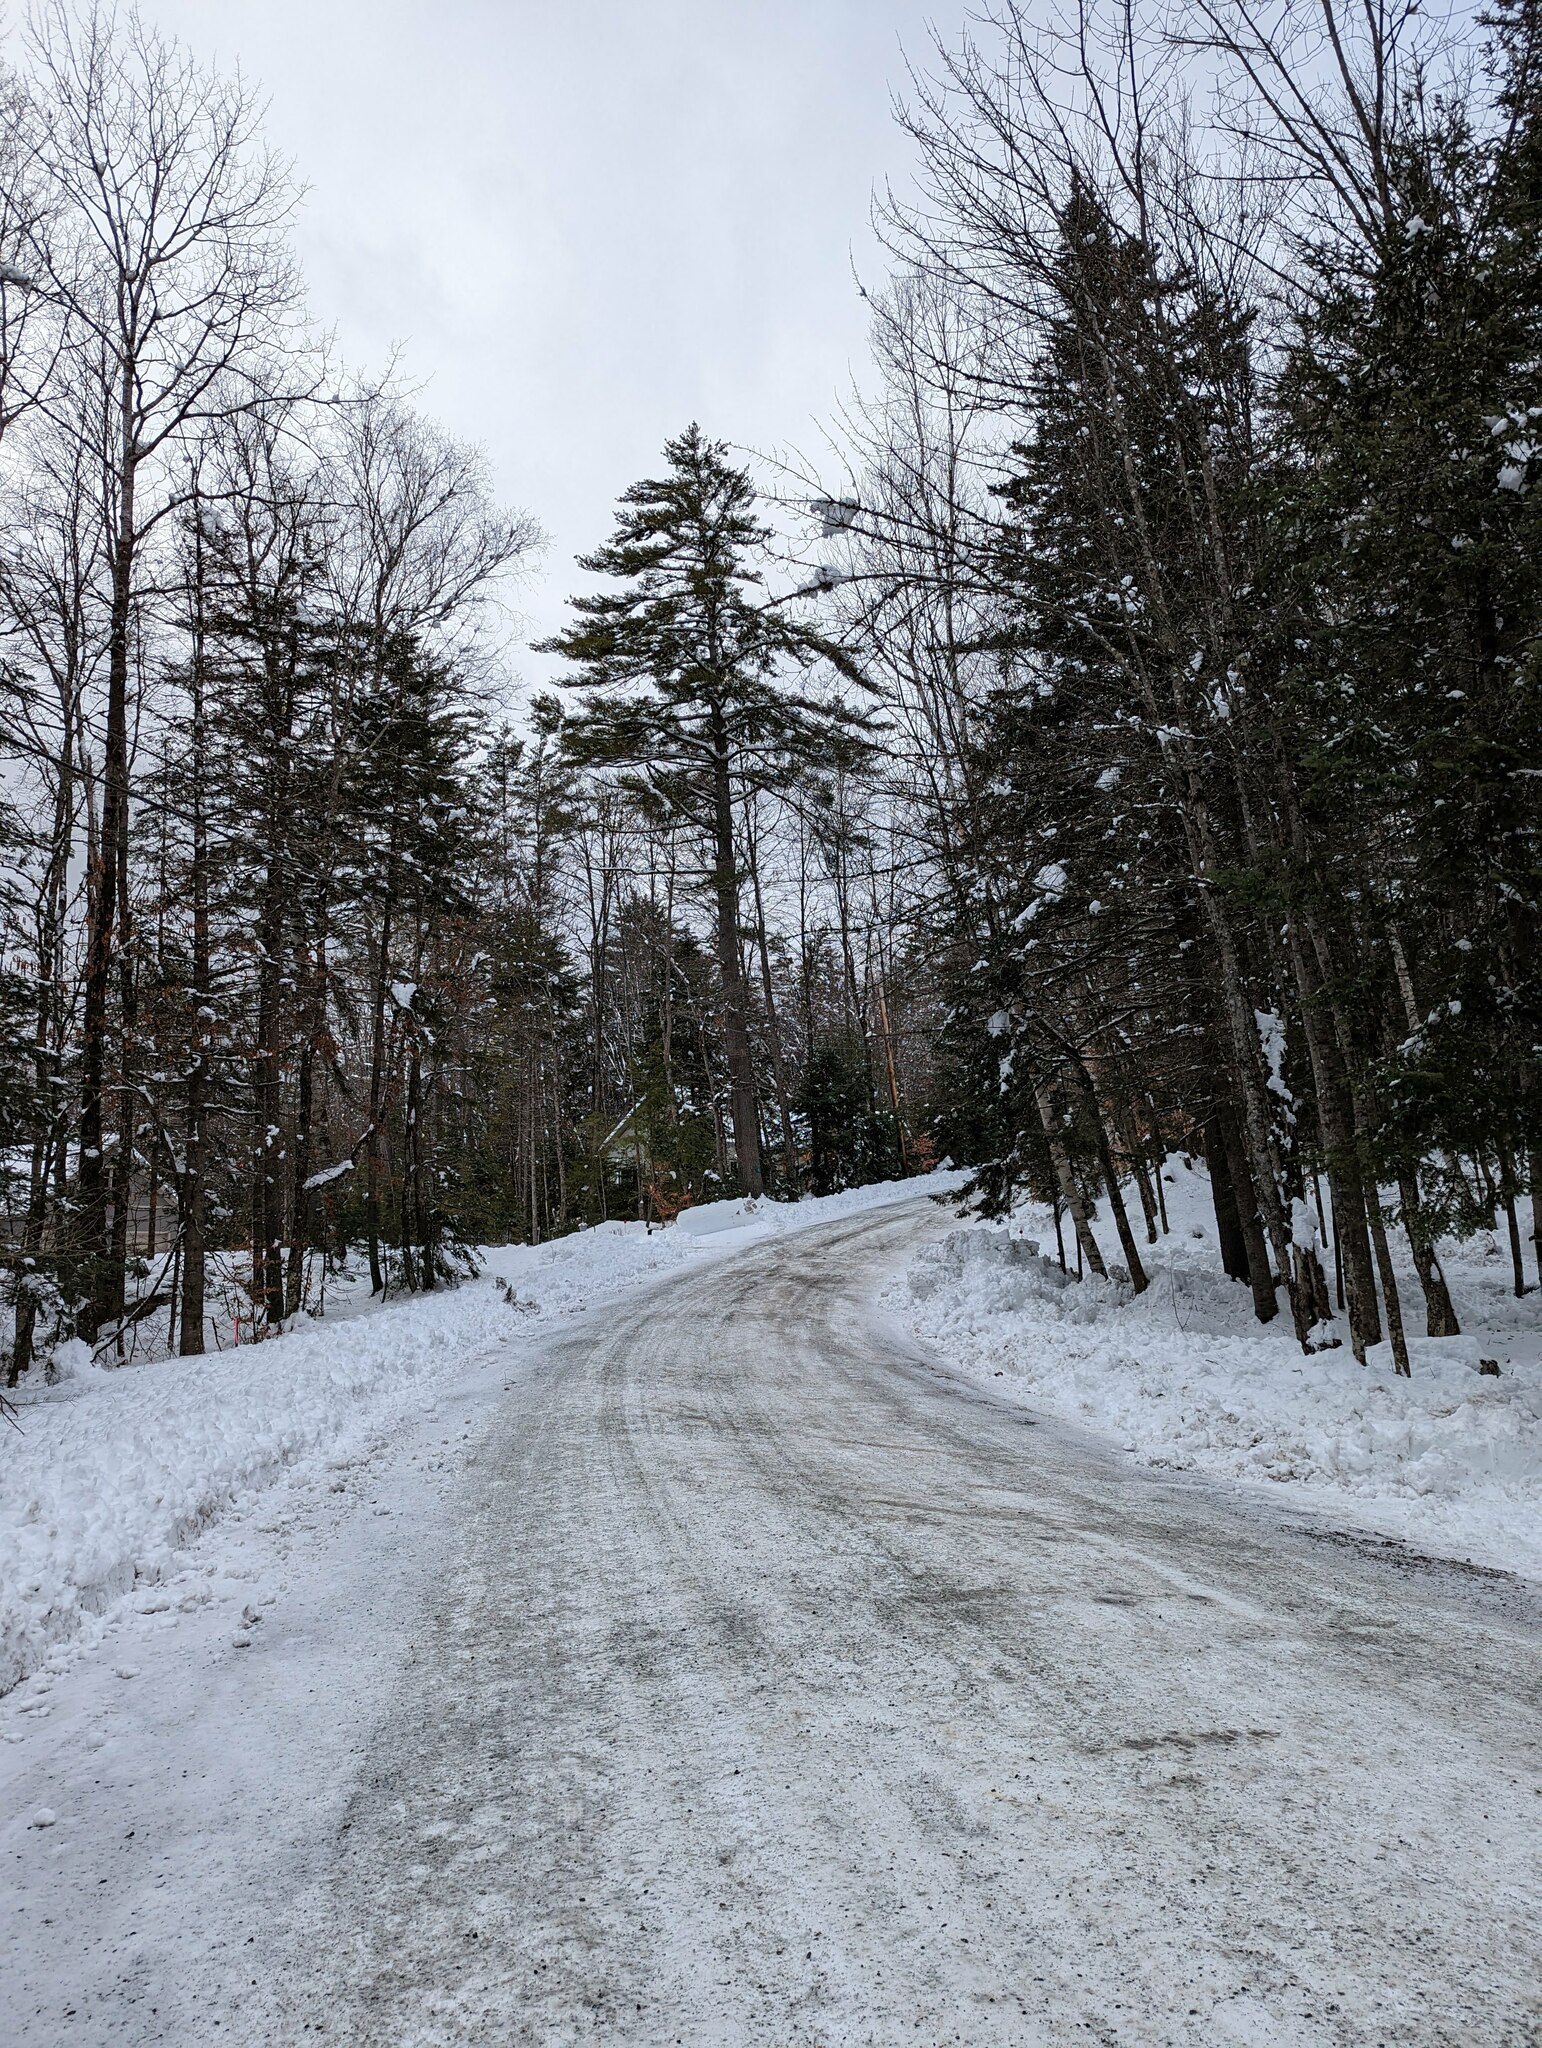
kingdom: Plantae
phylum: Tracheophyta
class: Pinopsida
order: Pinales
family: Pinaceae
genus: Pinus
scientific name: Pinus strobus
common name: Weymouth pine
